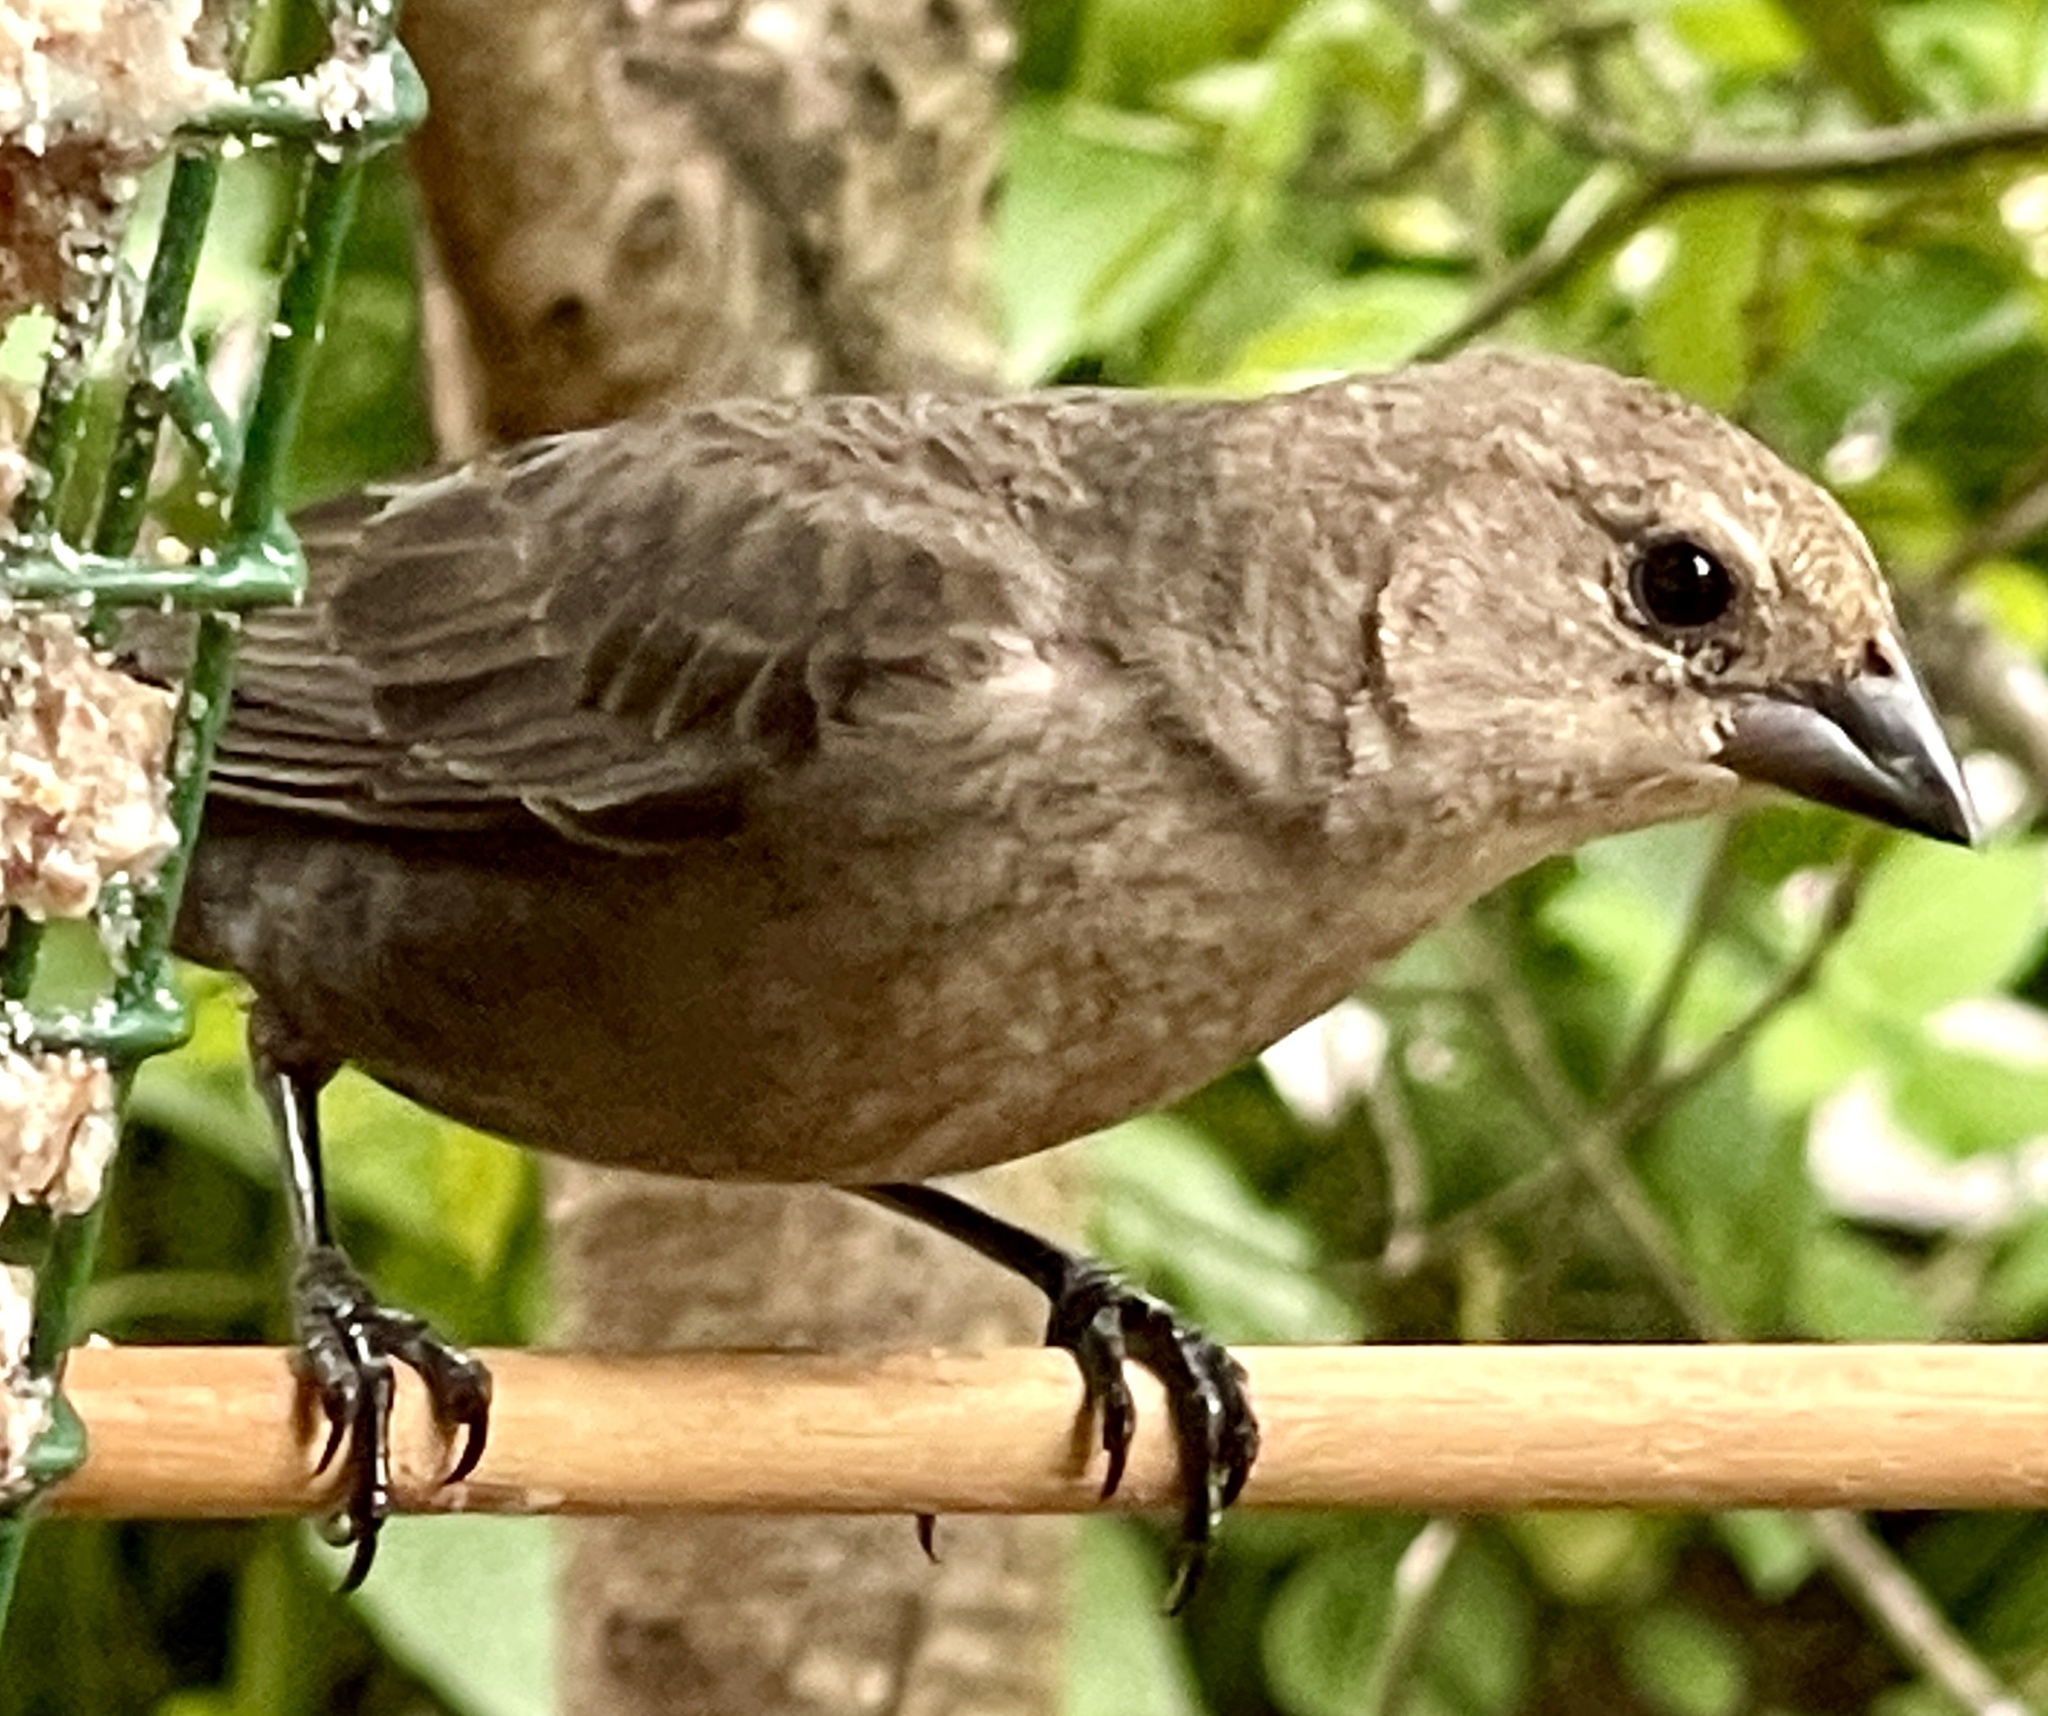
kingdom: Animalia
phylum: Chordata
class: Aves
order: Passeriformes
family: Icteridae
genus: Molothrus
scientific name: Molothrus ater
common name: Brown-headed cowbird
